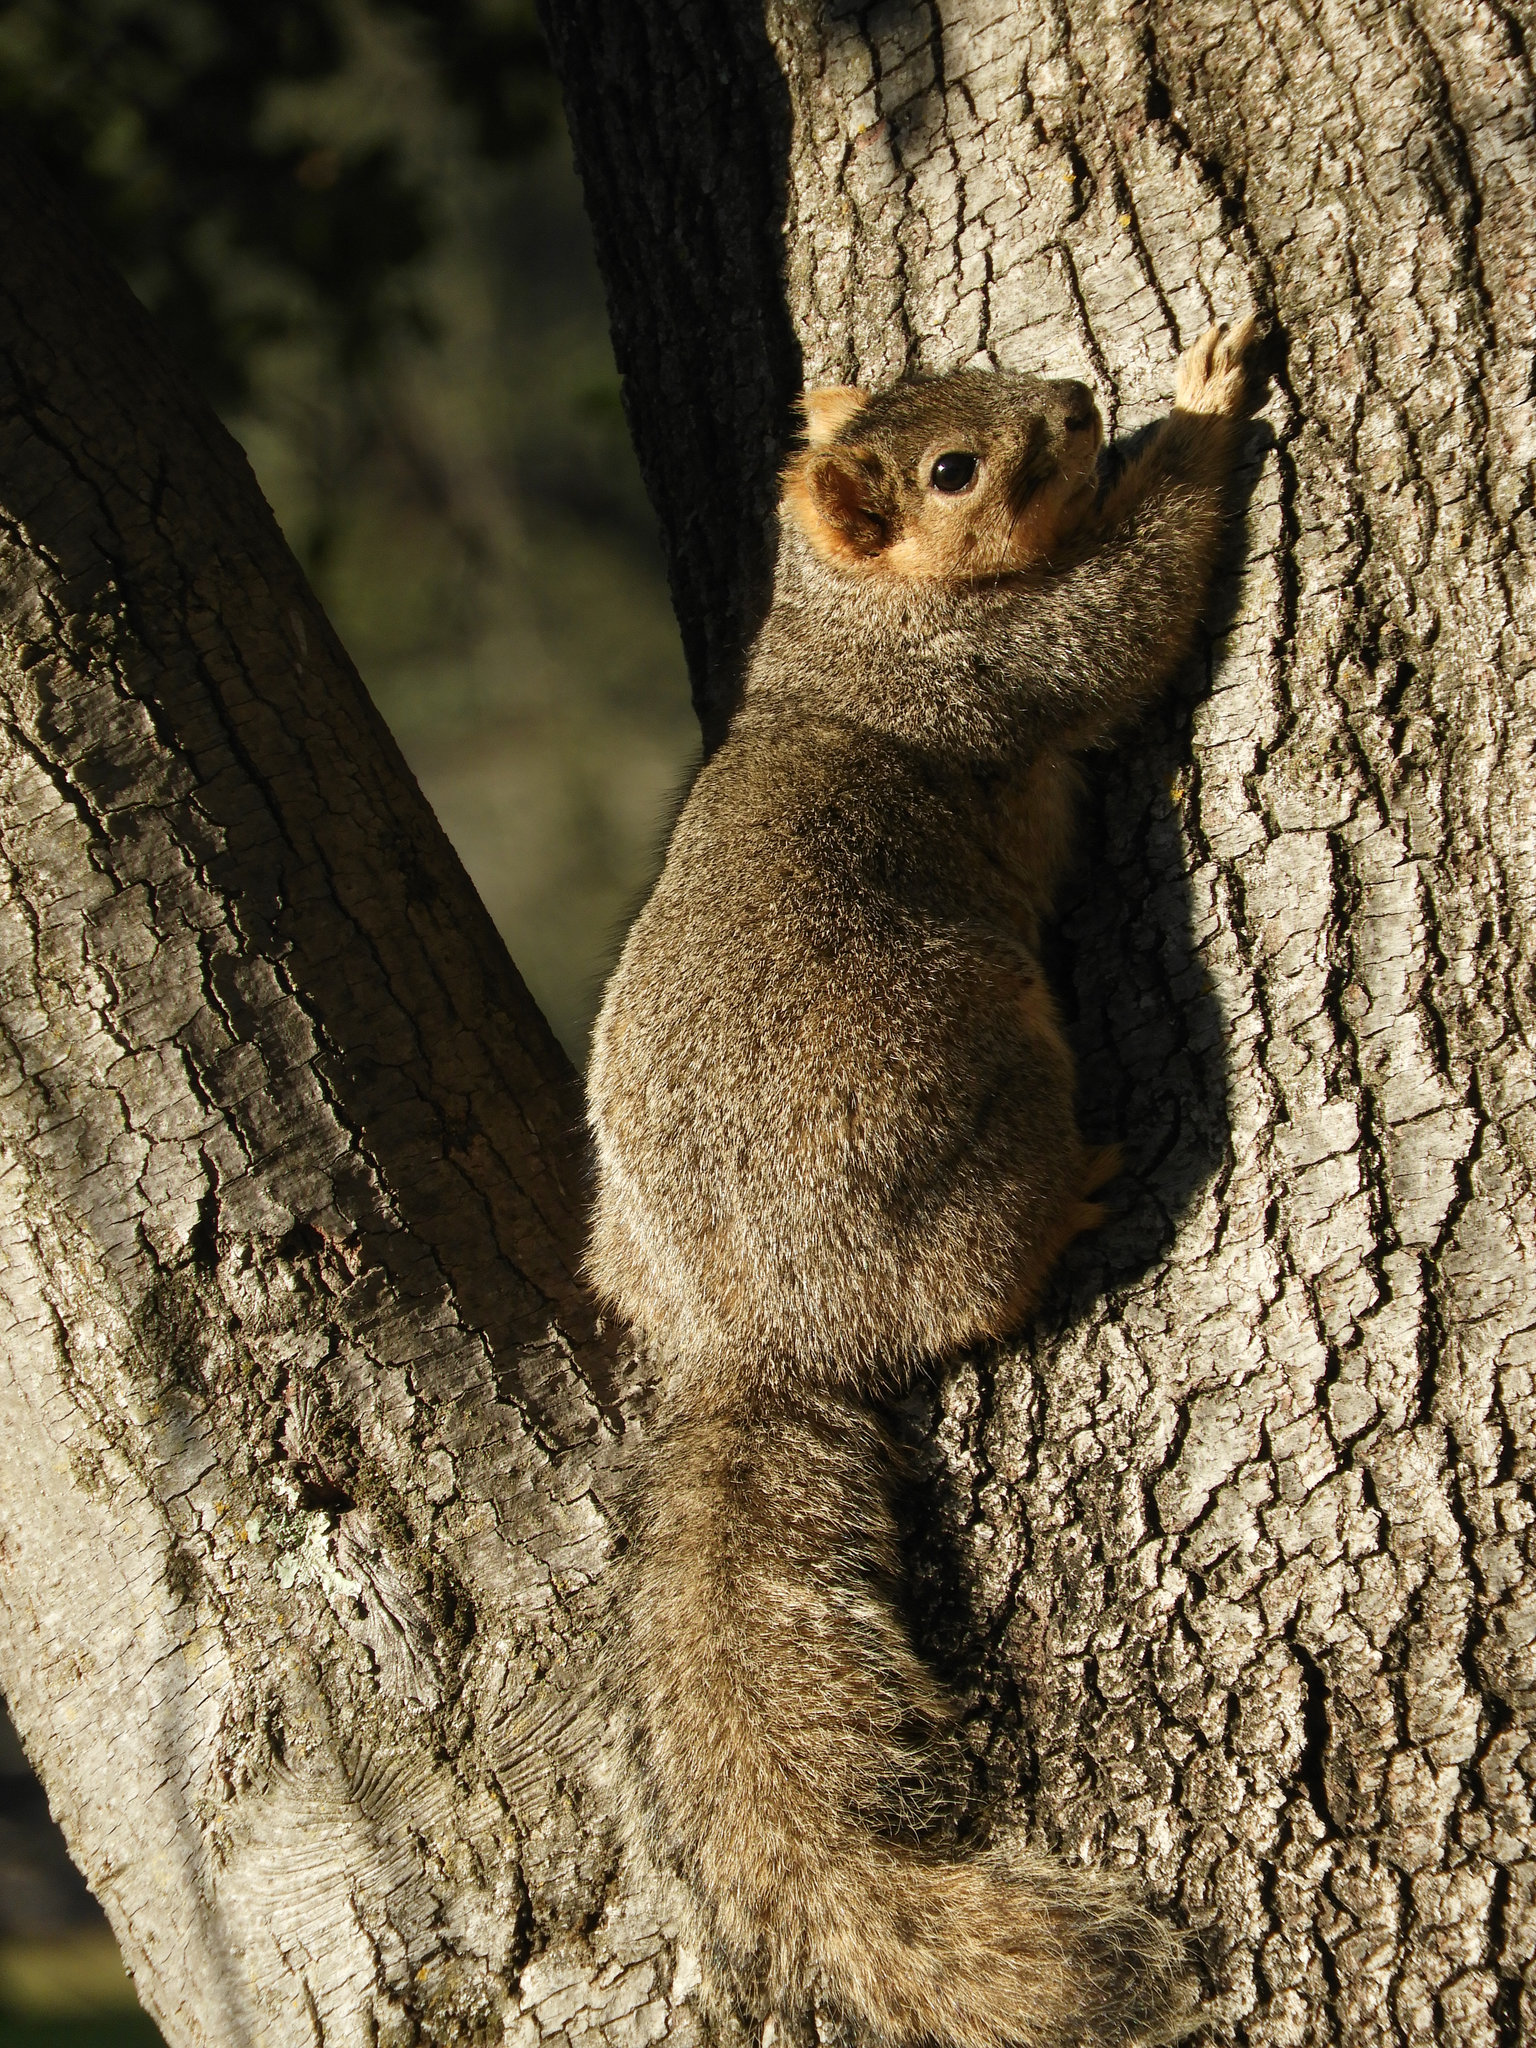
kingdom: Animalia
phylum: Chordata
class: Mammalia
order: Rodentia
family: Sciuridae
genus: Sciurus
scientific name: Sciurus niger
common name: Fox squirrel
